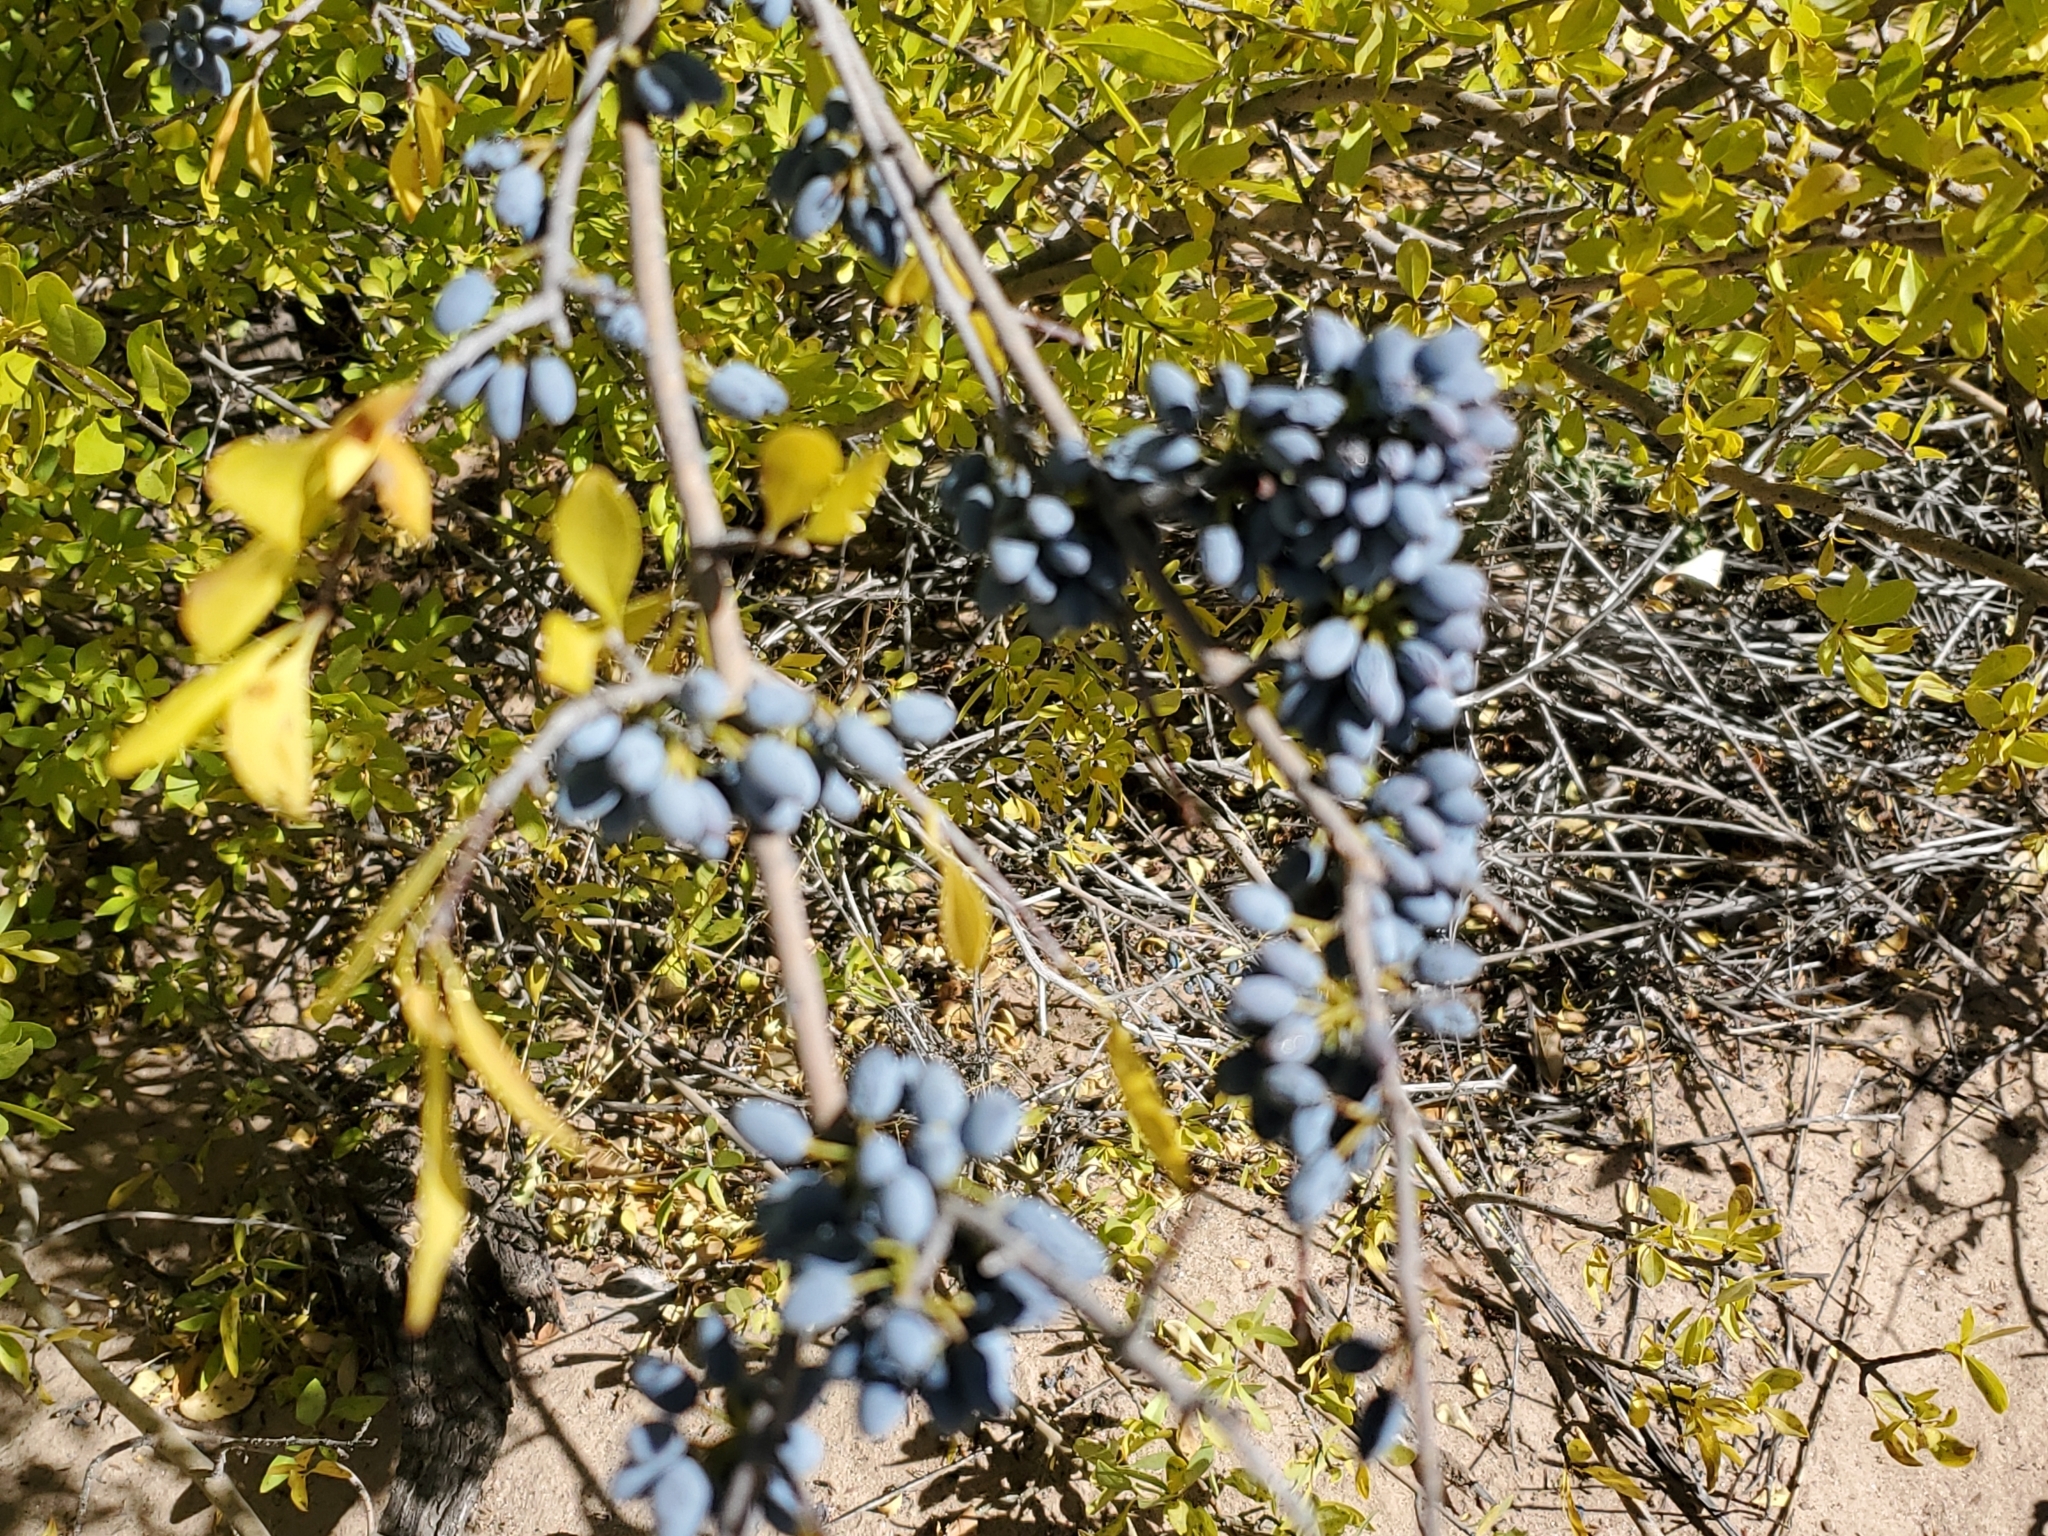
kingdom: Plantae
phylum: Tracheophyta
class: Magnoliopsida
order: Lamiales
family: Oleaceae
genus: Forestiera
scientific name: Forestiera pubescens
